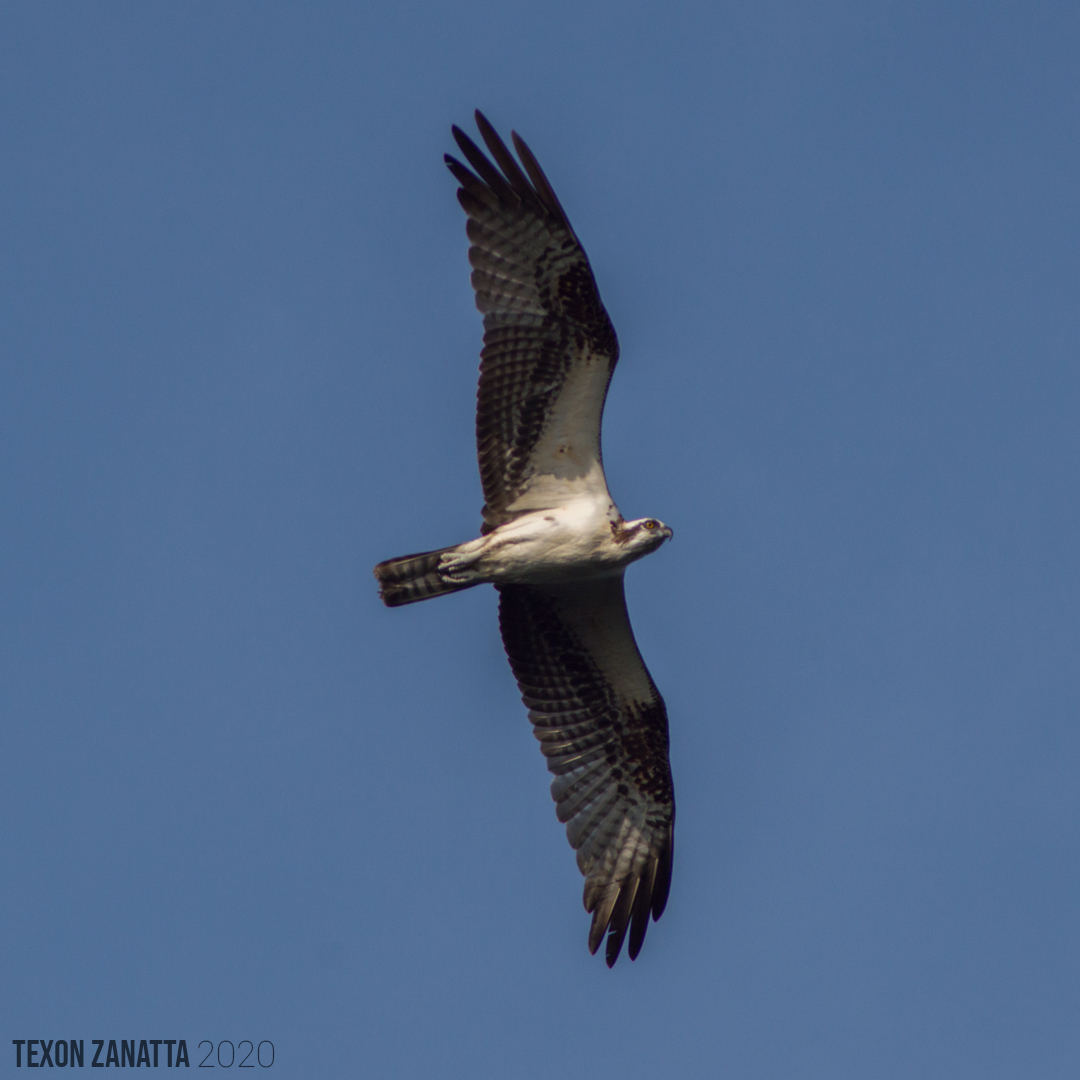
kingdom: Animalia
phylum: Chordata
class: Aves
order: Accipitriformes
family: Pandionidae
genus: Pandion
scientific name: Pandion haliaetus
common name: Osprey
